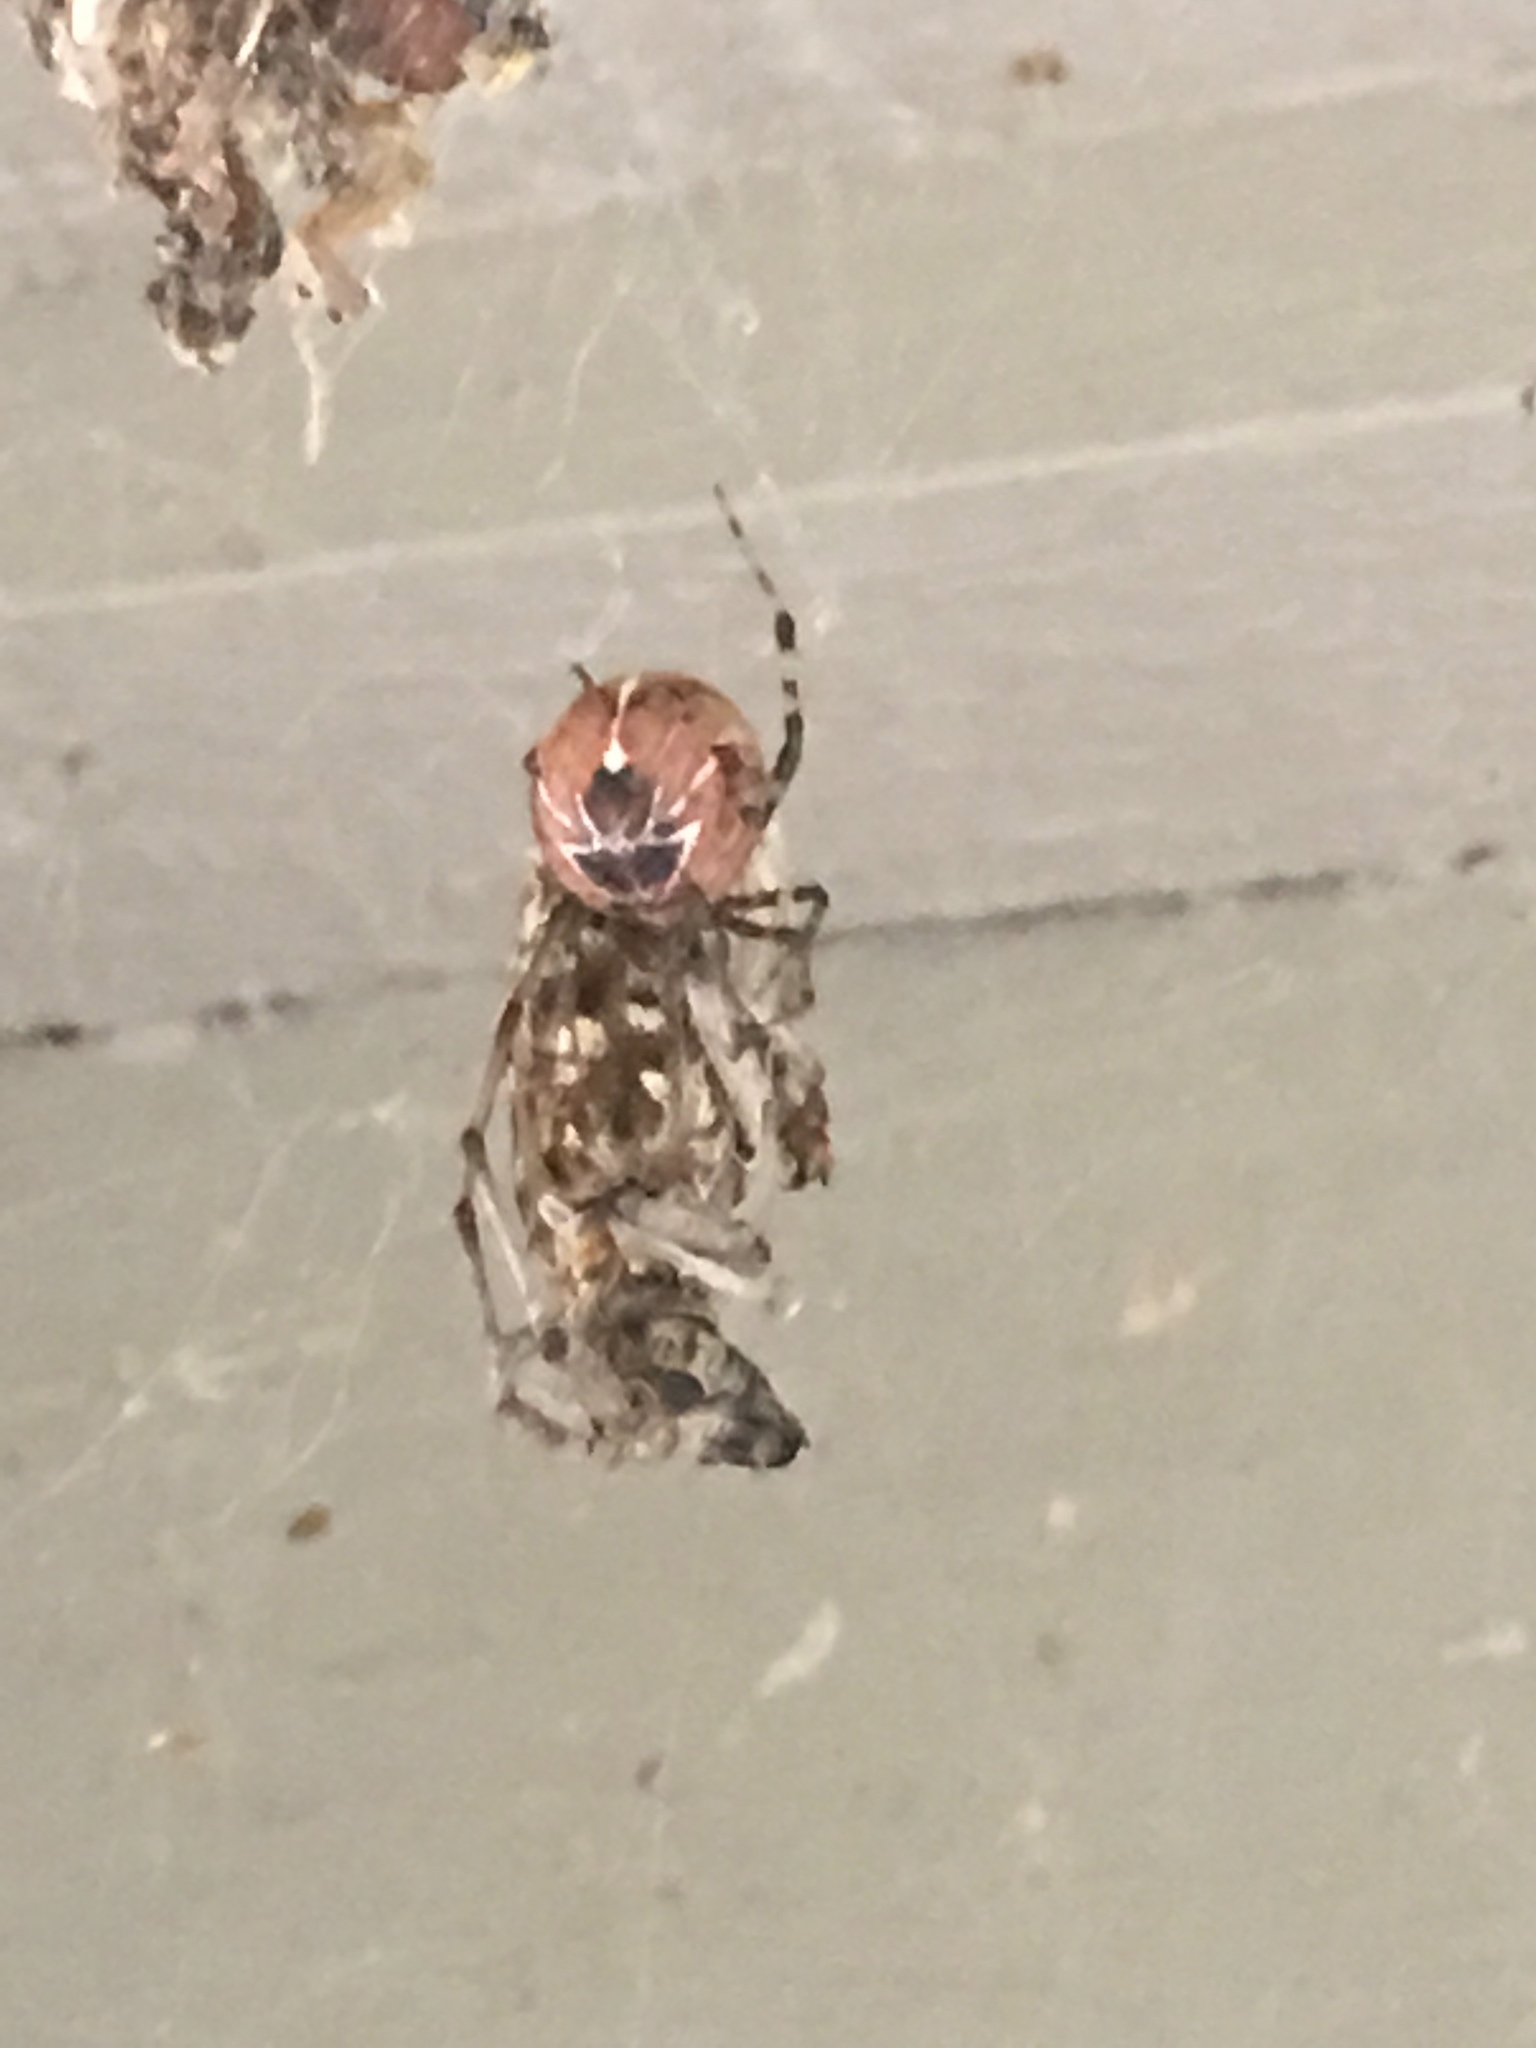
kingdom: Animalia
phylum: Arthropoda
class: Arachnida
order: Araneae
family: Theridiidae
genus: Tidarren
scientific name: Tidarren sisyphoides
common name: Cobweb spiders
